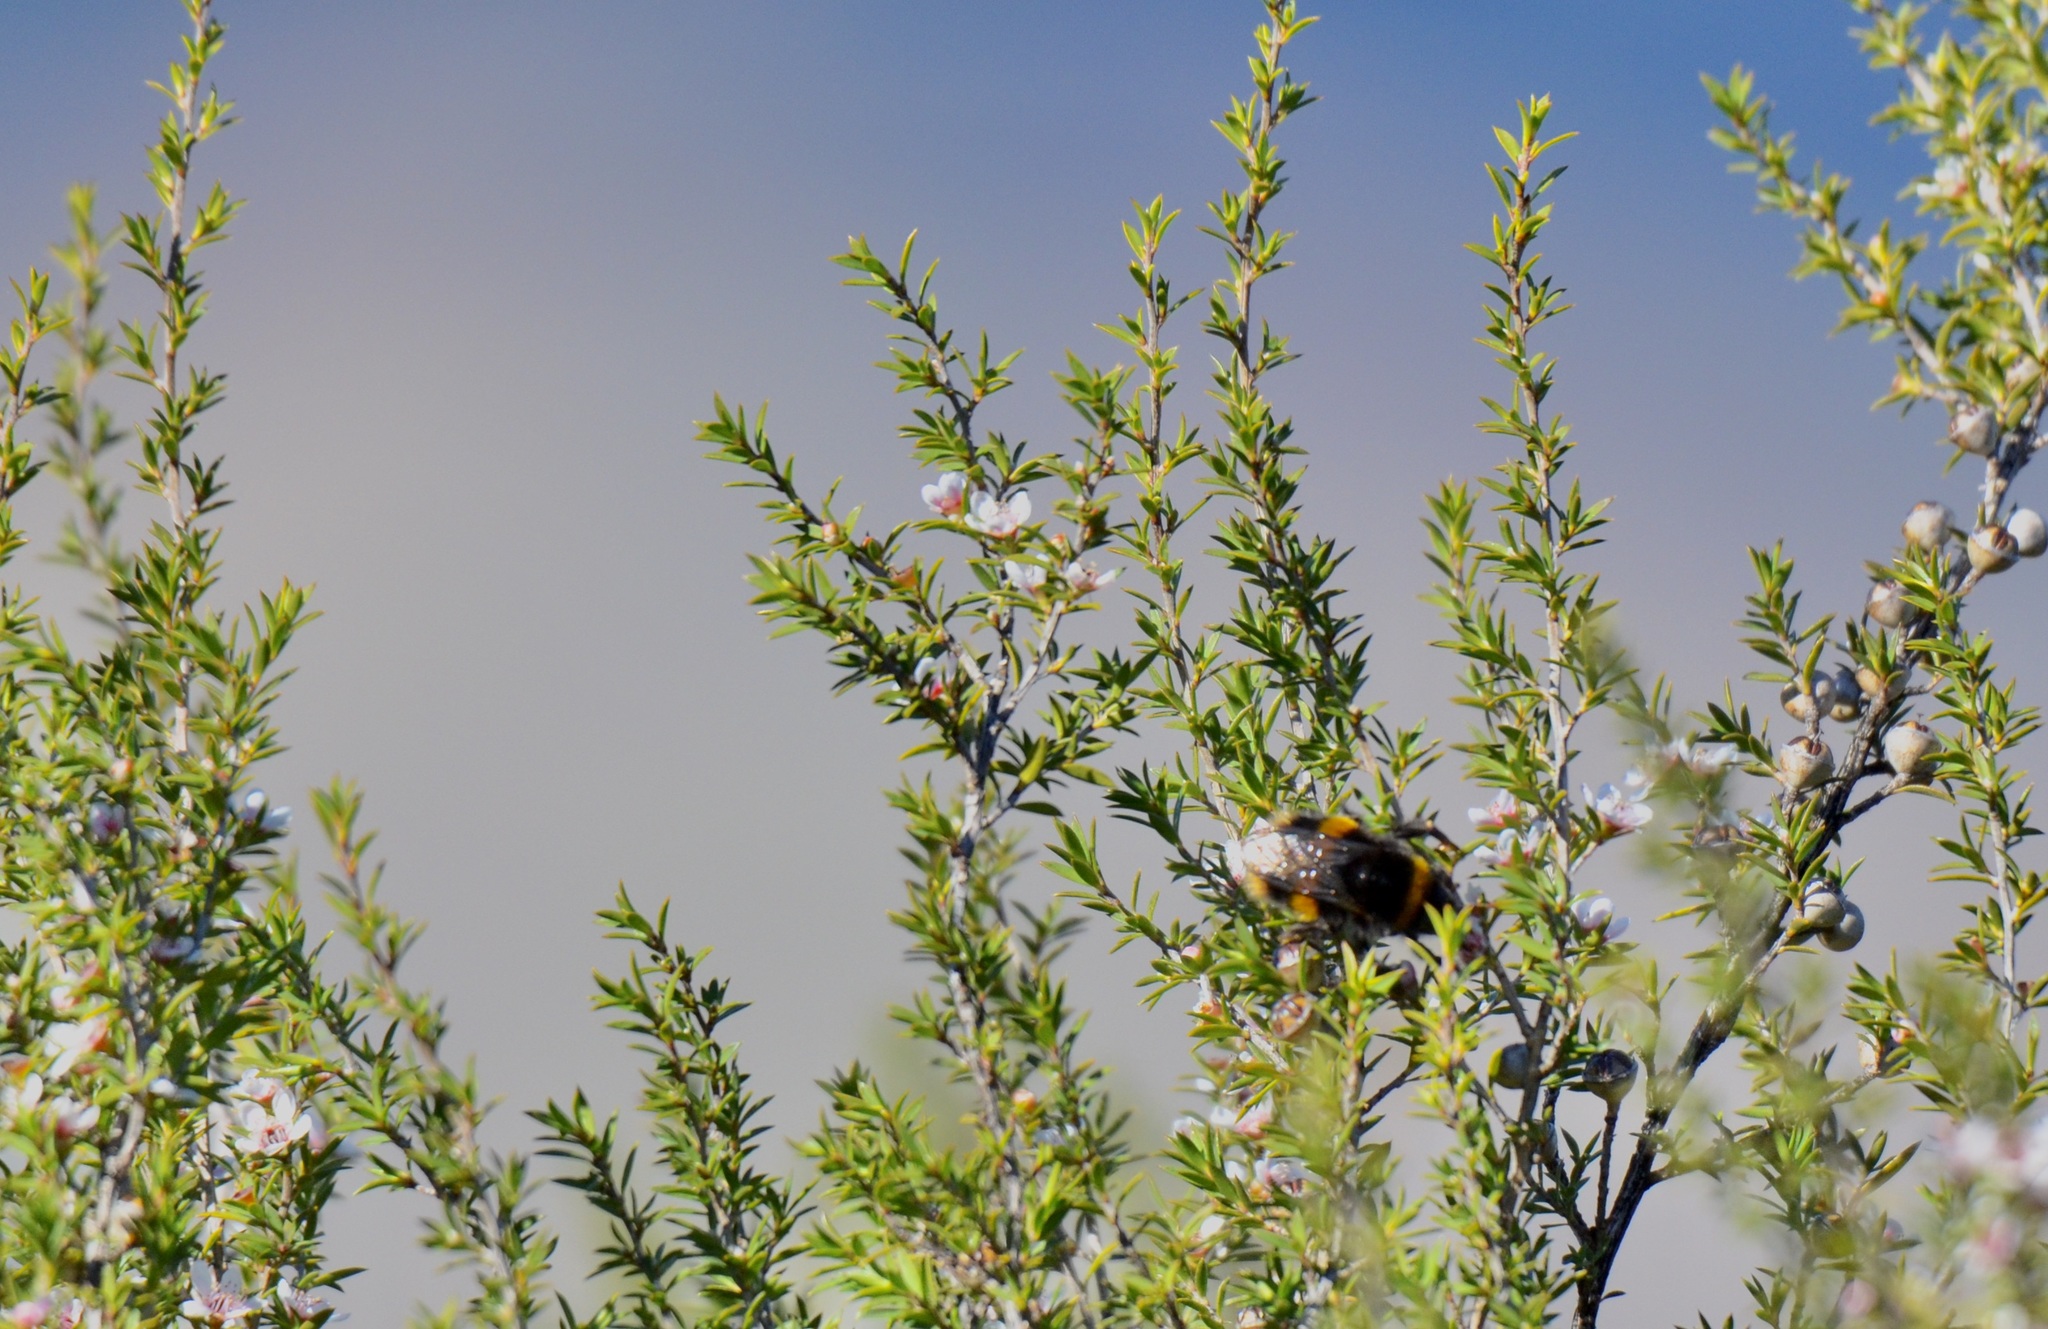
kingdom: Animalia
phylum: Arthropoda
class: Insecta
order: Hymenoptera
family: Apidae
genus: Bombus
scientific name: Bombus terrestris
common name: Buff-tailed bumblebee
